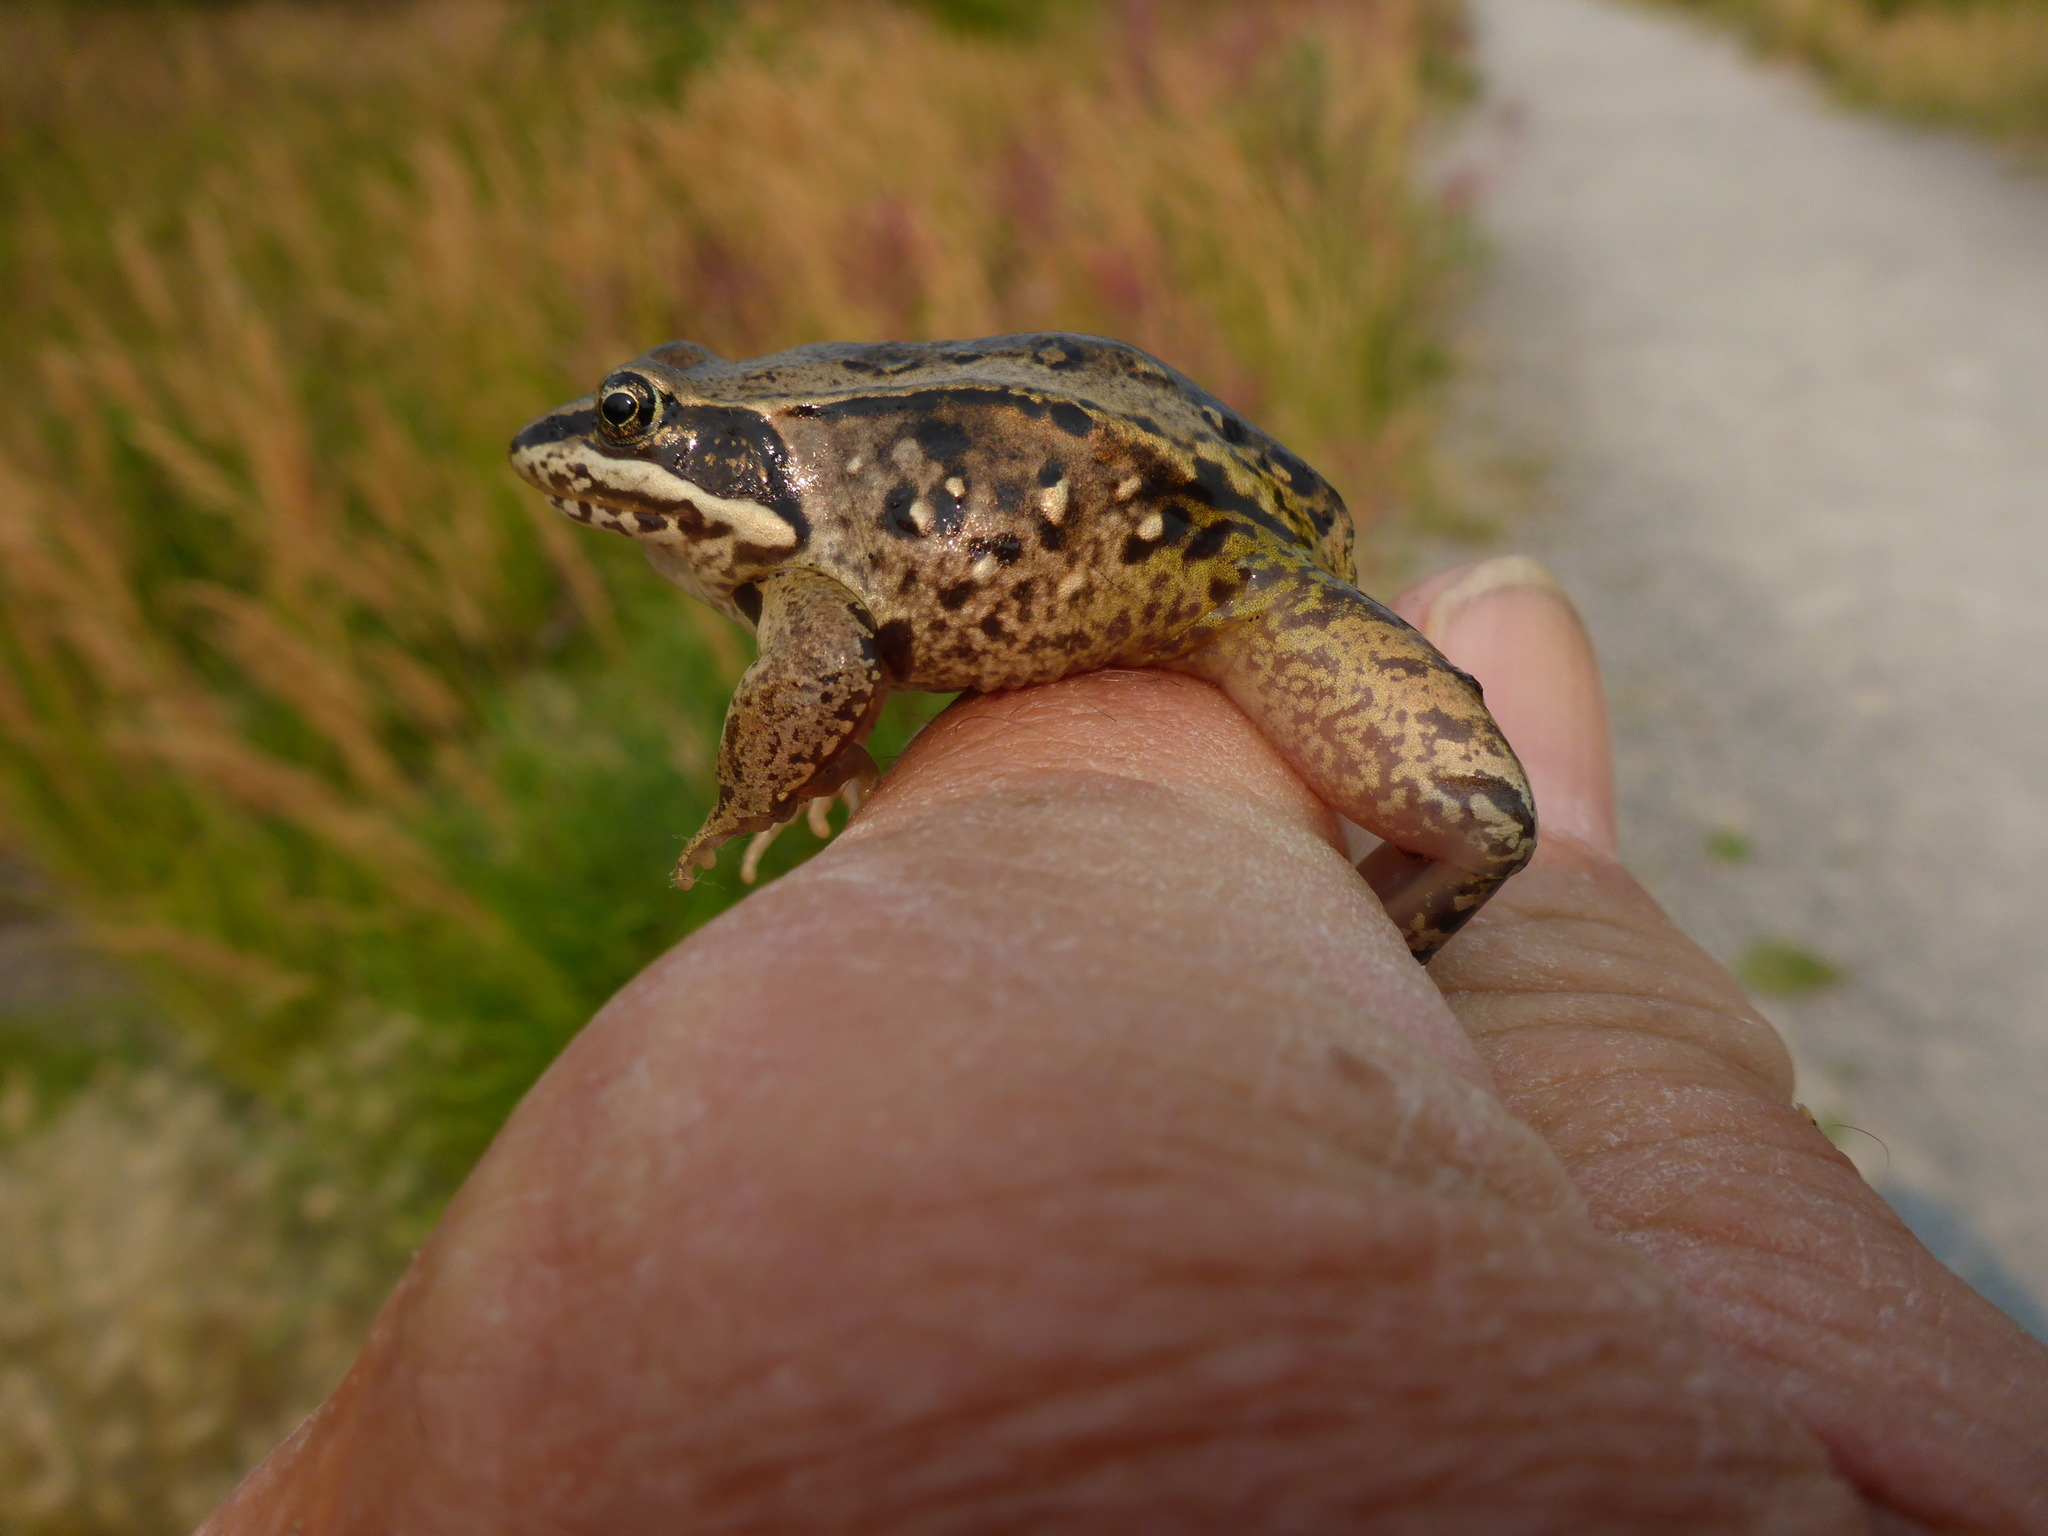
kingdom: Animalia
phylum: Chordata
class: Amphibia
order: Anura
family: Ranidae
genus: Lithobates
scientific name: Lithobates sylvaticus
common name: Wood frog
